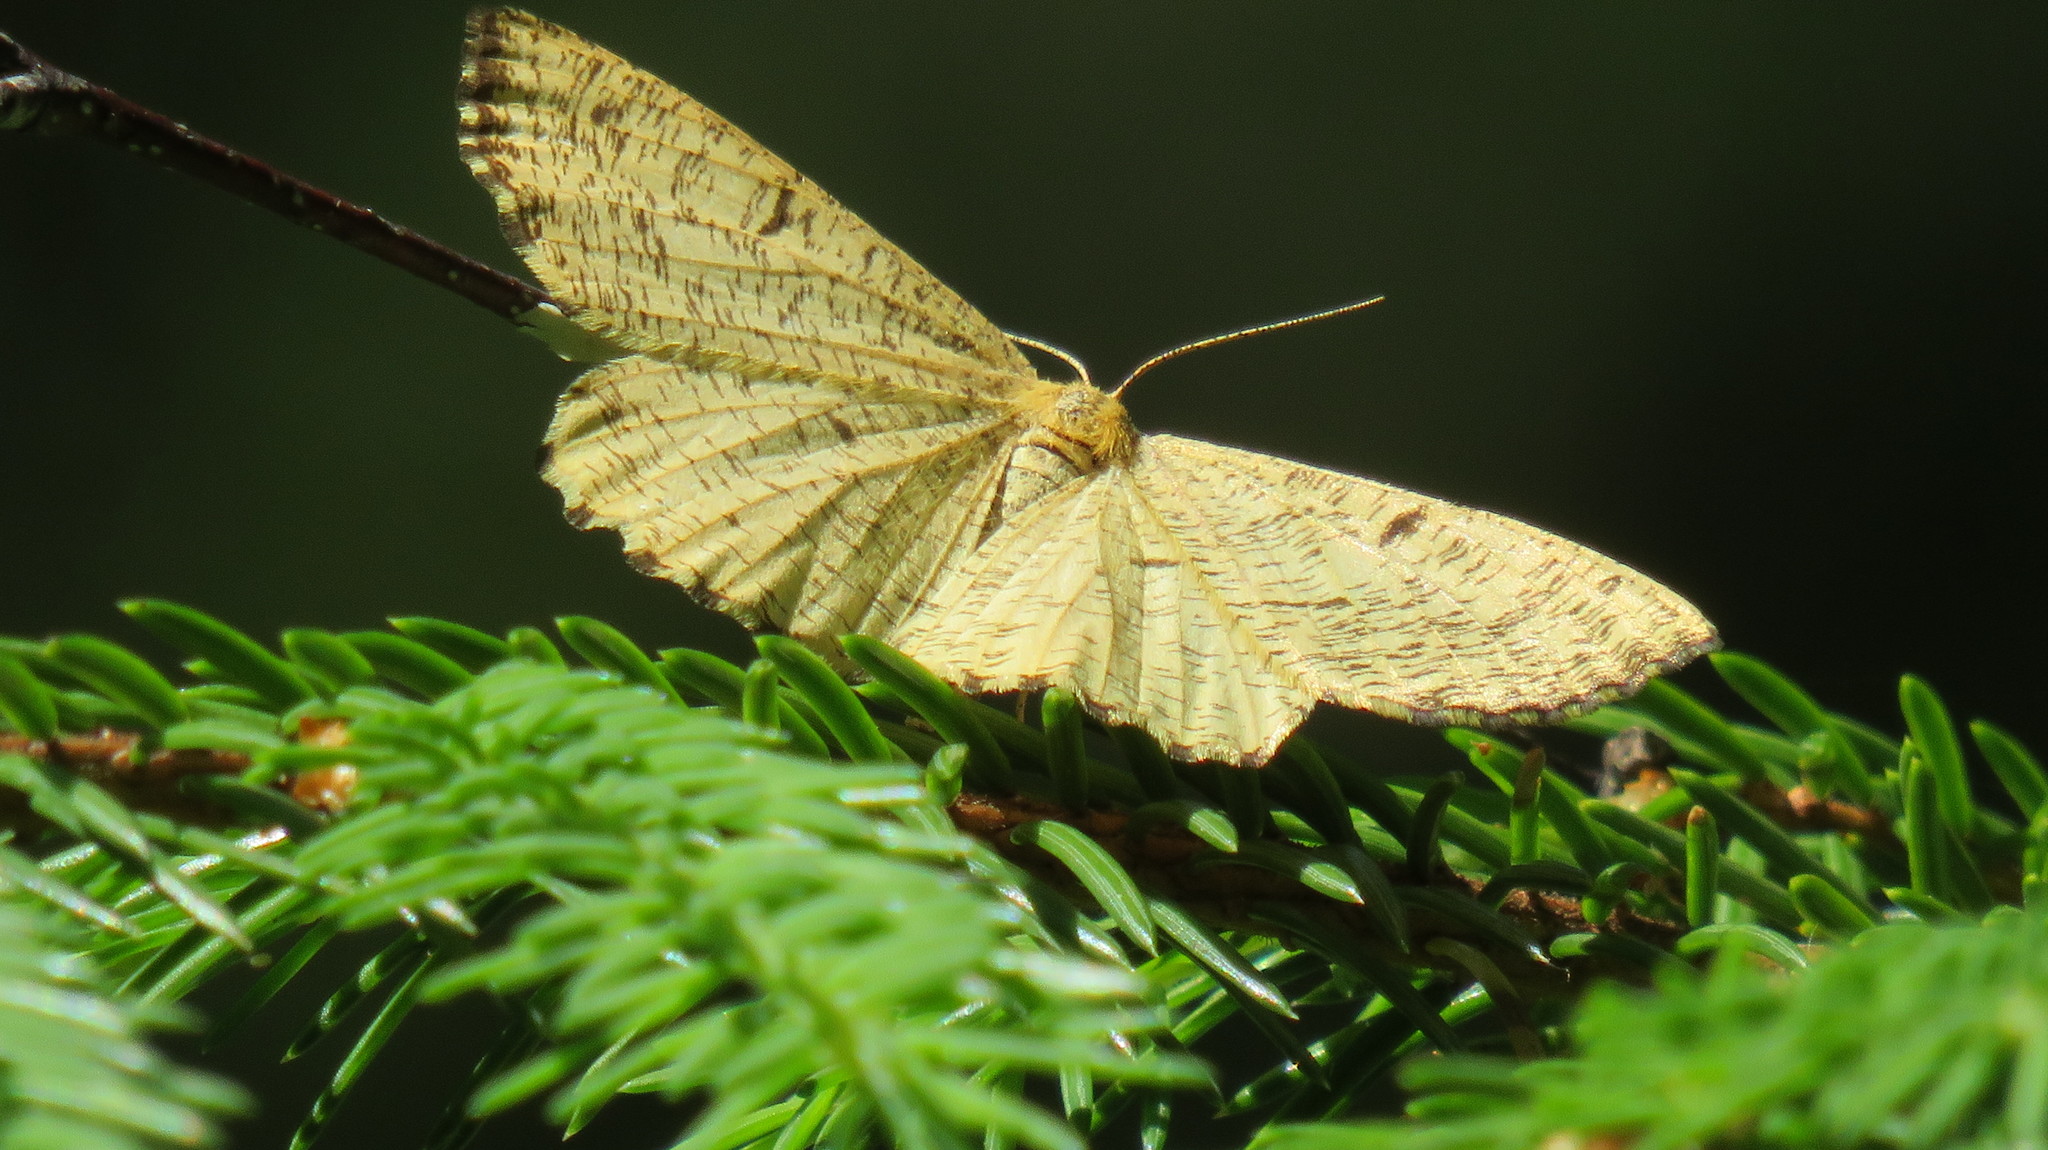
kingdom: Animalia
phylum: Arthropoda
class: Insecta
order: Lepidoptera
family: Geometridae
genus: Angerona
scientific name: Angerona prunaria
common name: Orange moth
